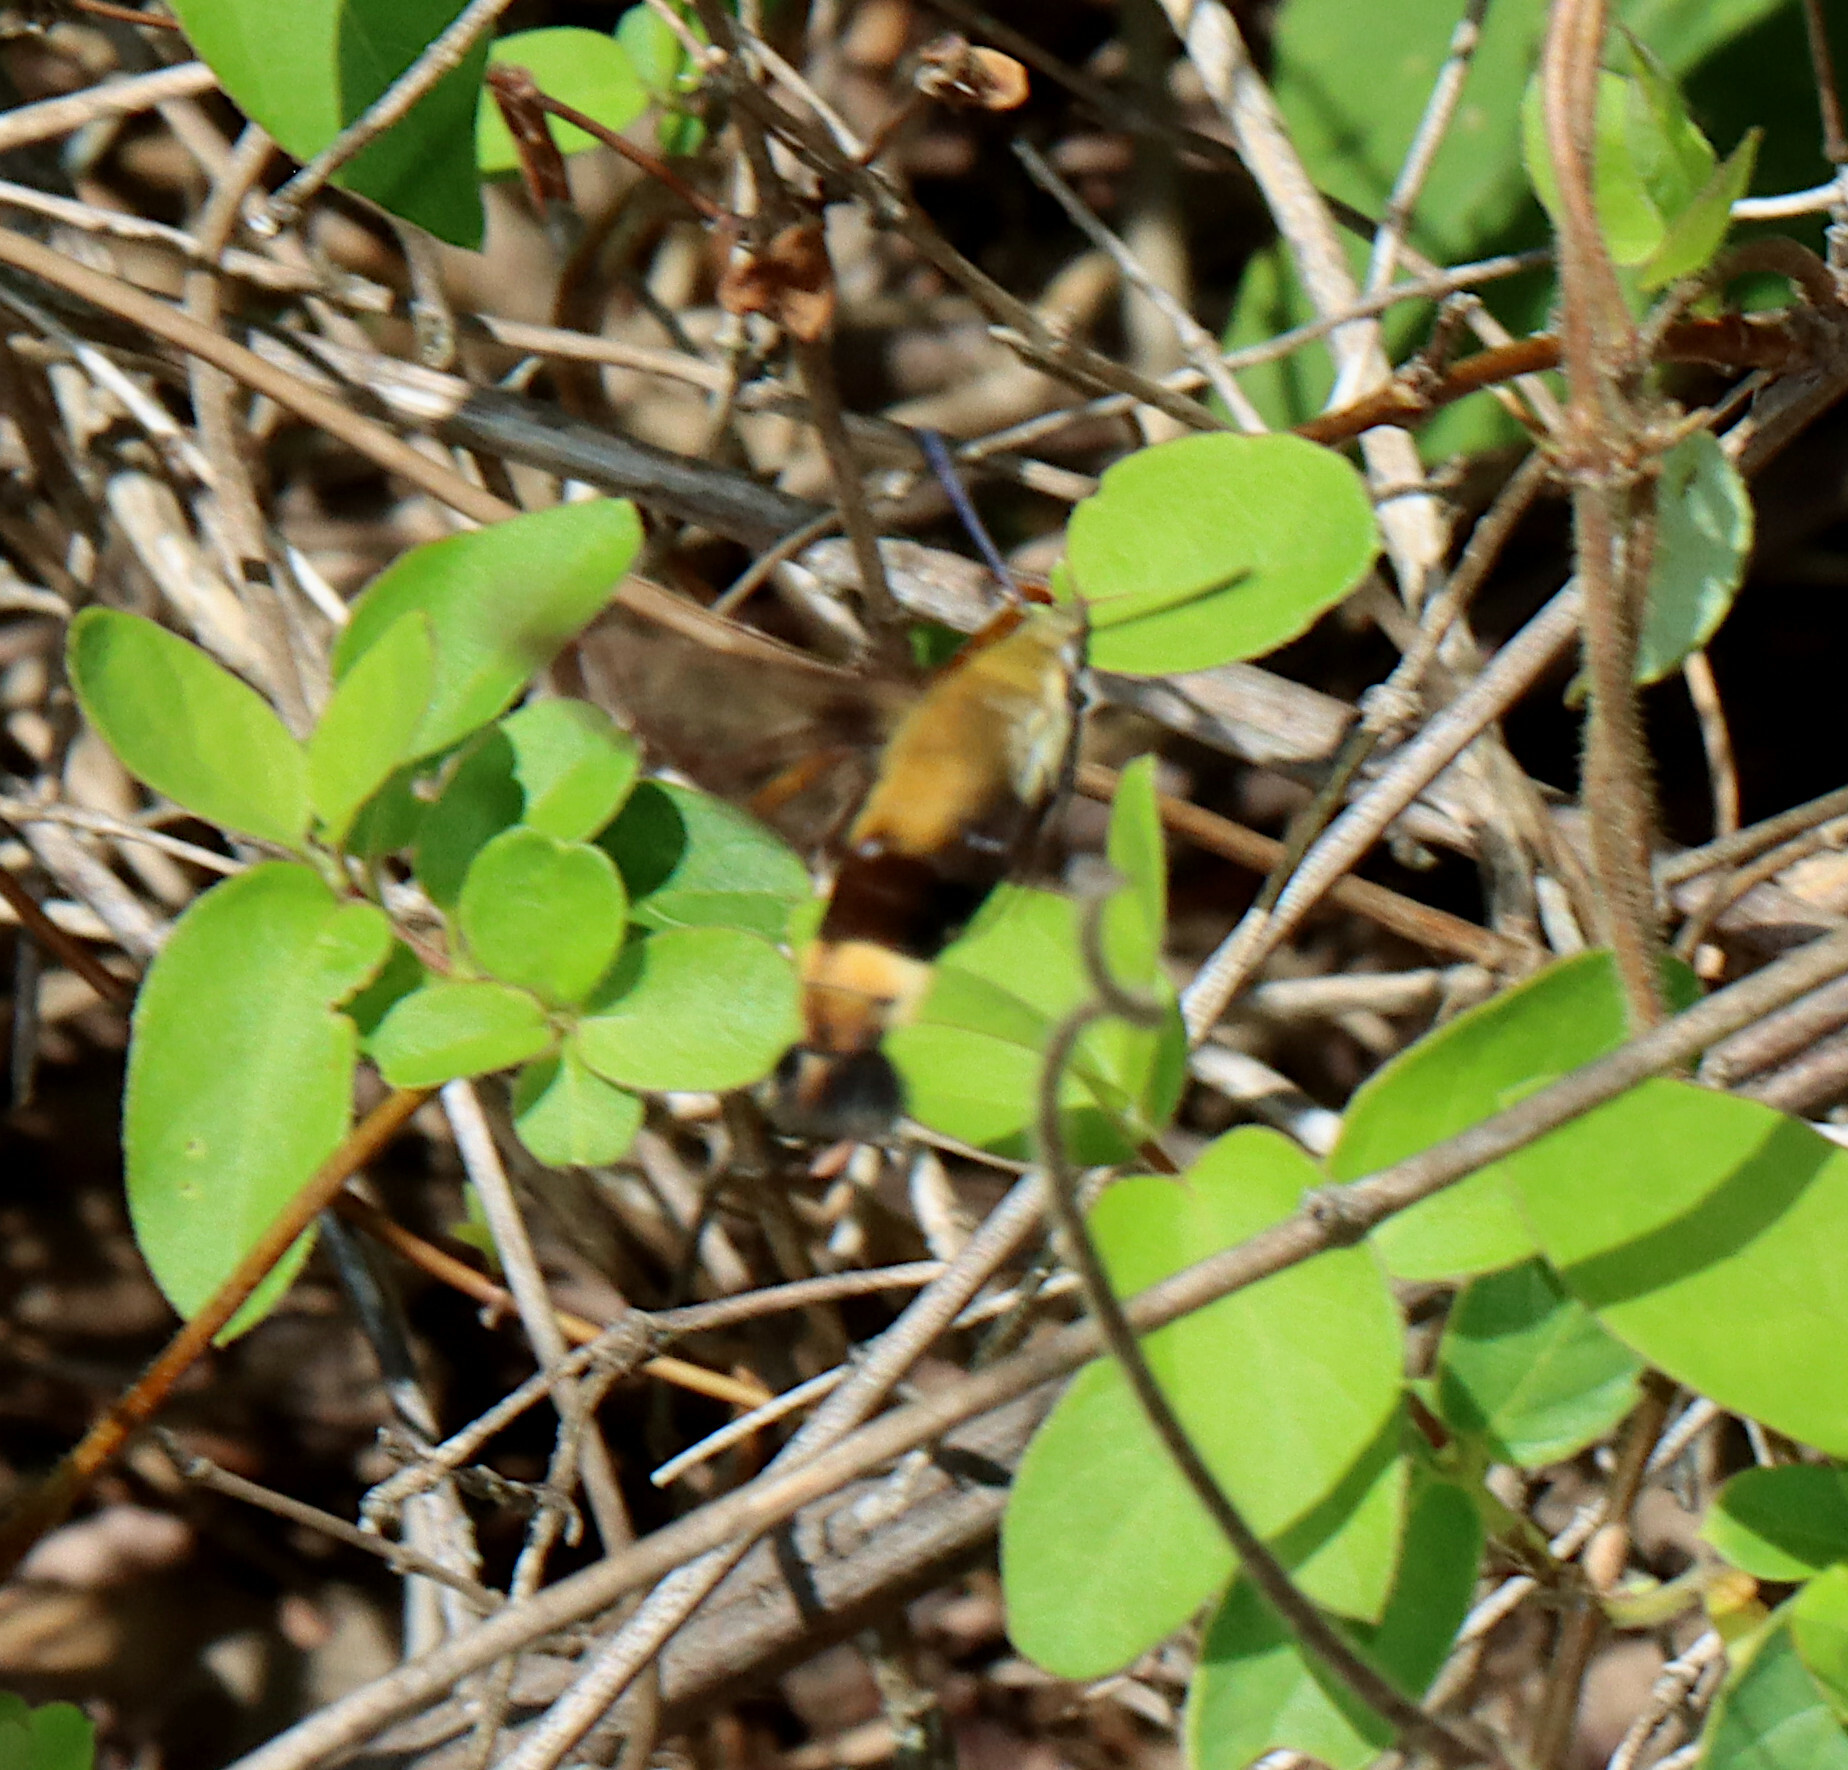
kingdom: Animalia
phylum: Arthropoda
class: Insecta
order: Lepidoptera
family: Sphingidae
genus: Hemaris
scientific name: Hemaris diffinis
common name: Bumblebee moth
